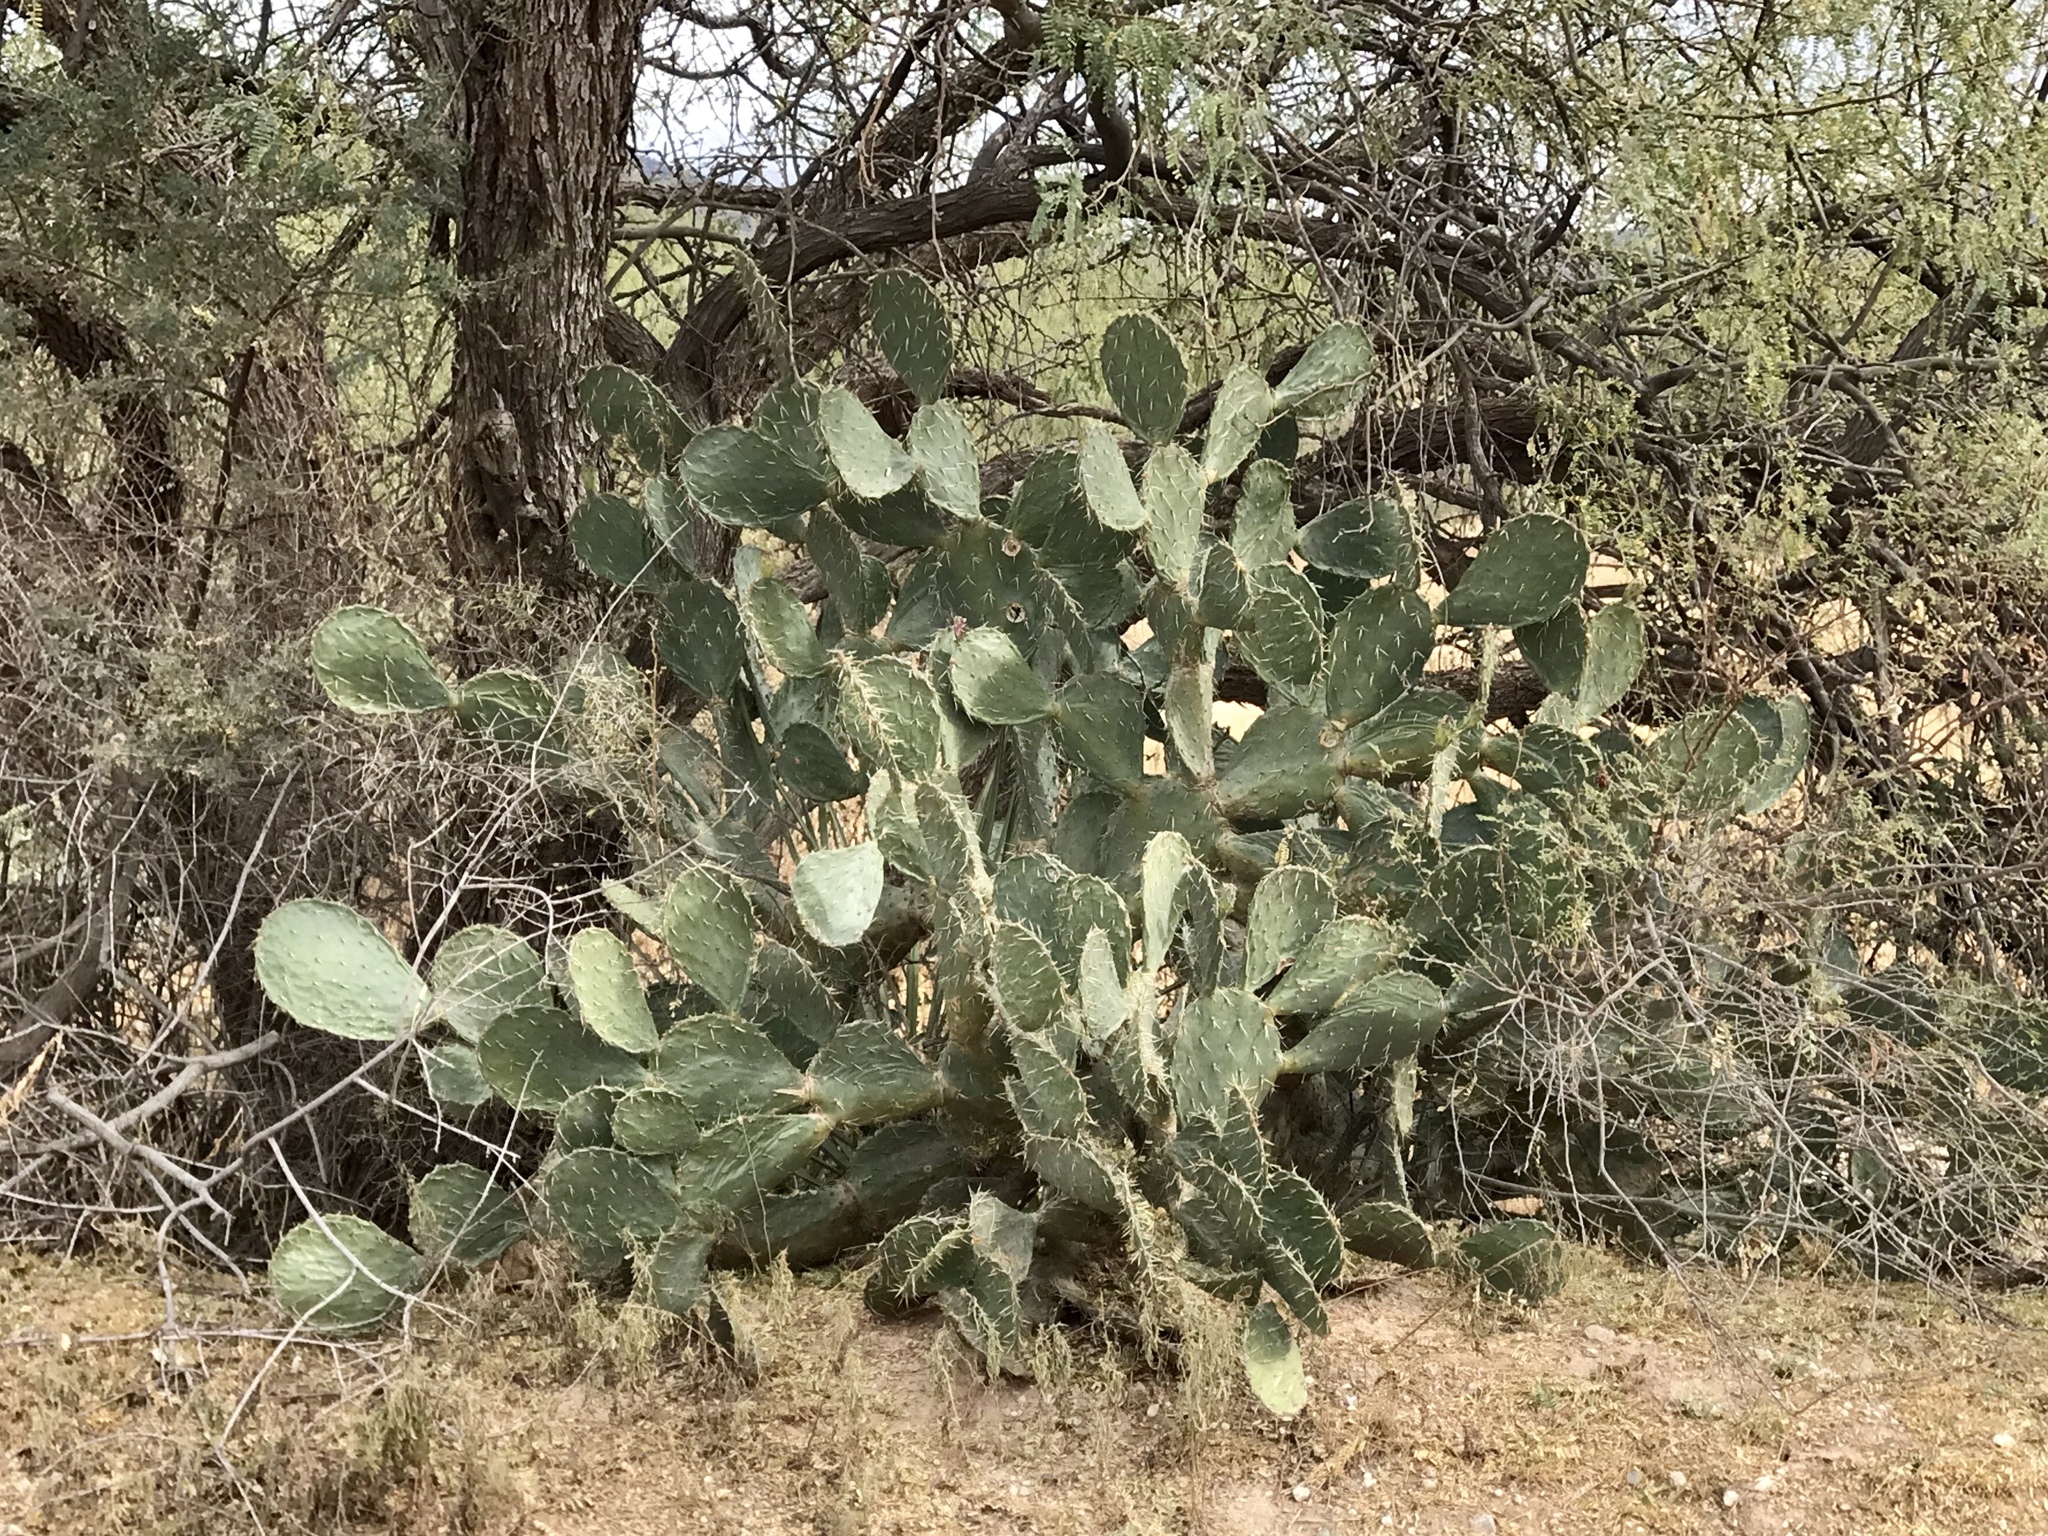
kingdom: Plantae
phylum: Tracheophyta
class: Magnoliopsida
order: Caryophyllales
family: Cactaceae
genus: Opuntia
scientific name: Opuntia engelmannii
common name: Cactus-apple
